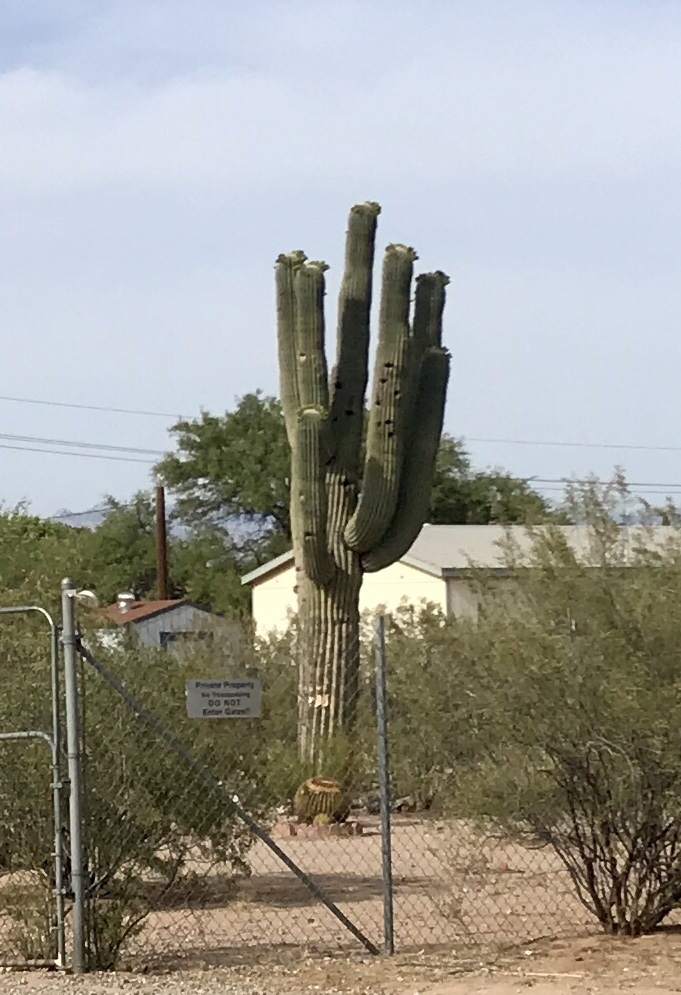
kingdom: Plantae
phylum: Tracheophyta
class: Magnoliopsida
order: Caryophyllales
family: Cactaceae
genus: Carnegiea
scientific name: Carnegiea gigantea
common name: Saguaro
